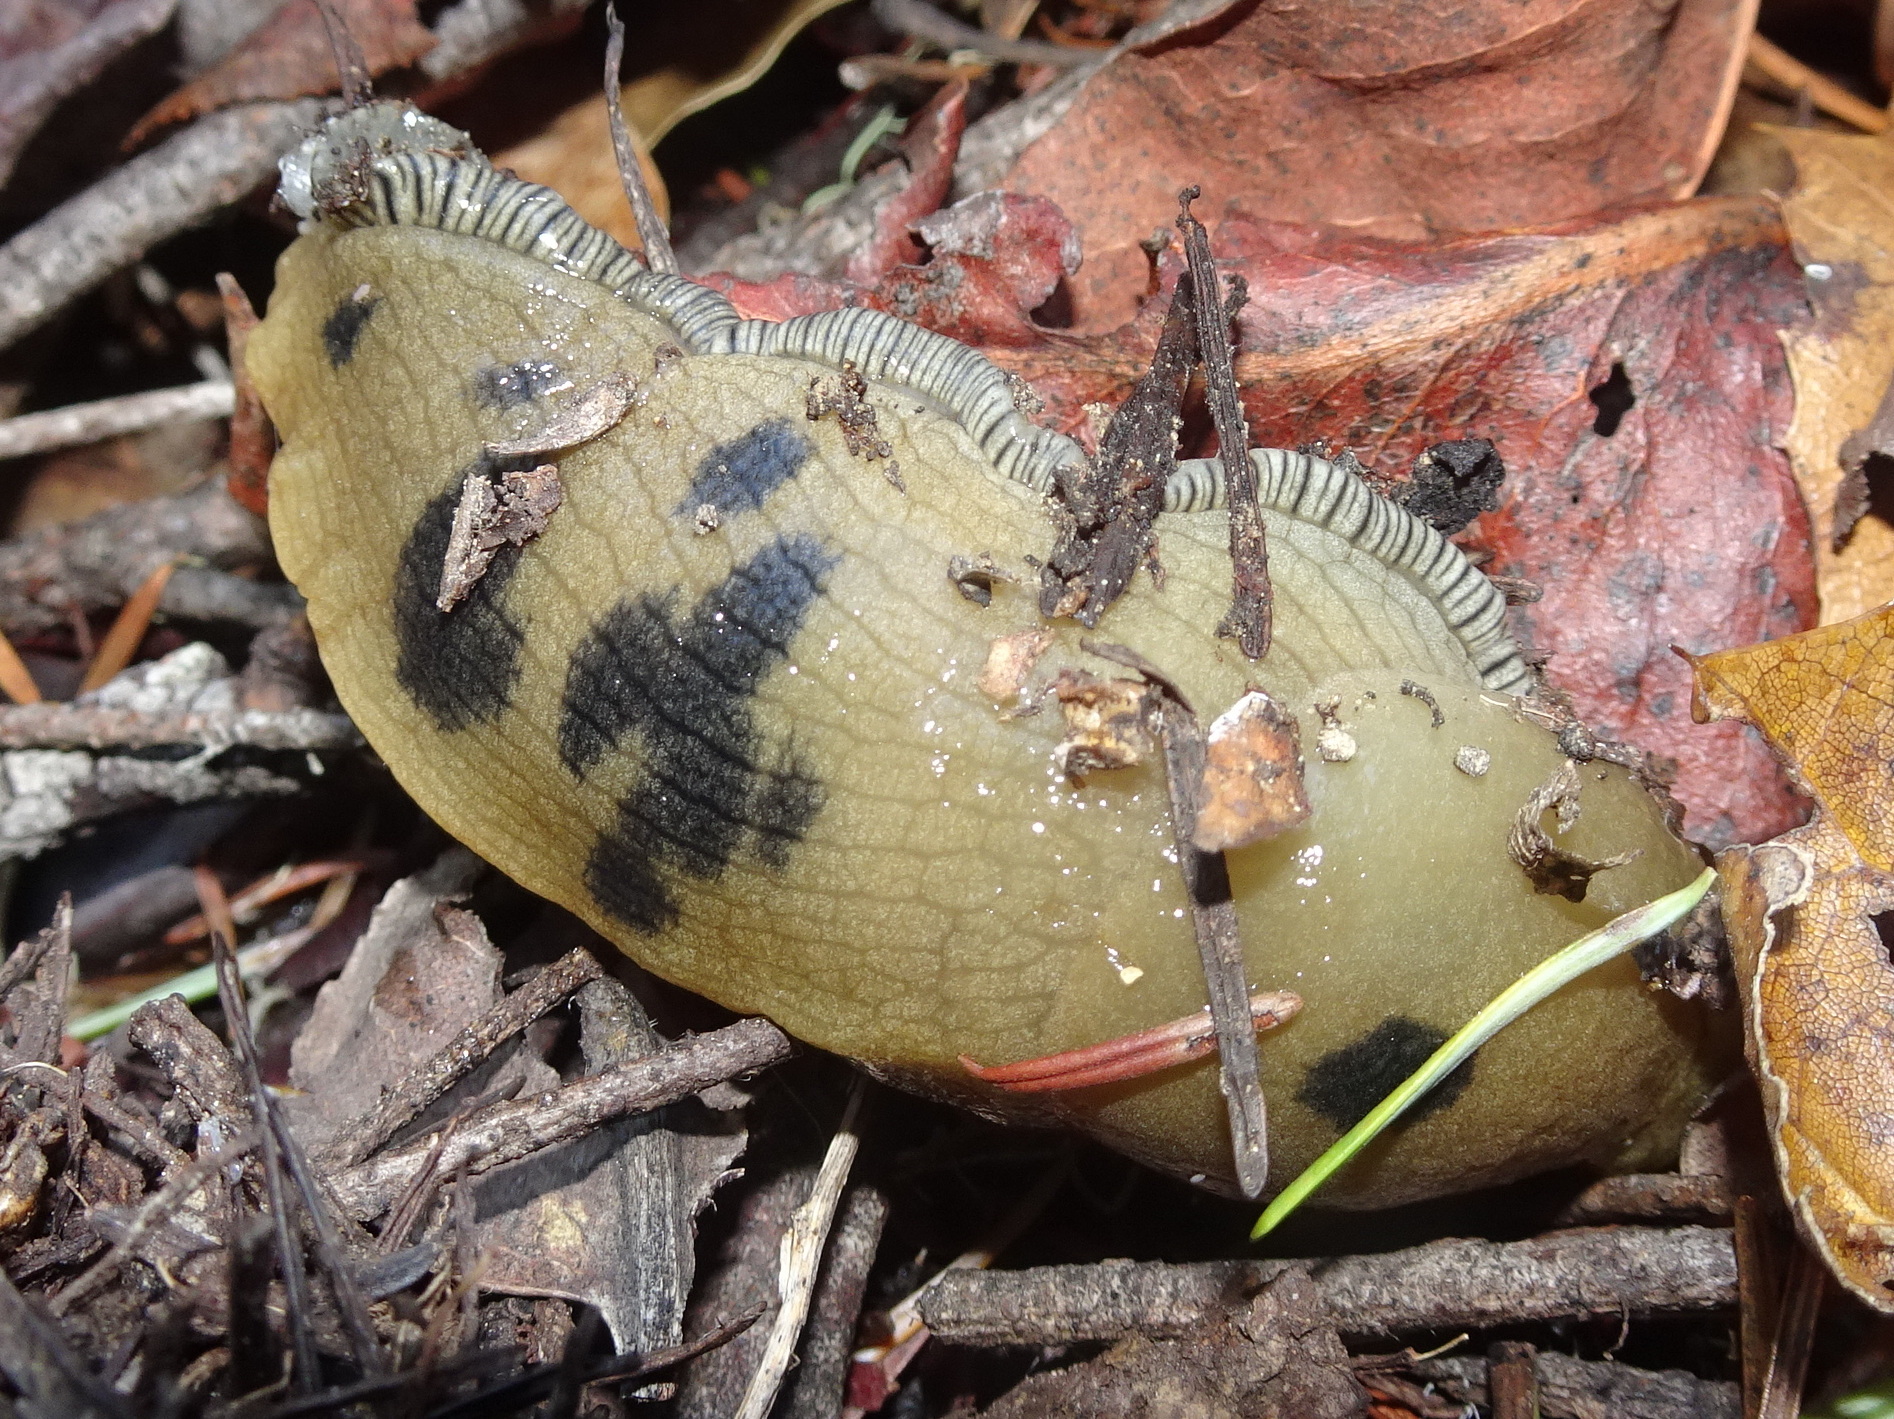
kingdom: Animalia
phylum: Mollusca
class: Gastropoda
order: Stylommatophora
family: Ariolimacidae
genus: Ariolimax
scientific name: Ariolimax buttoni
